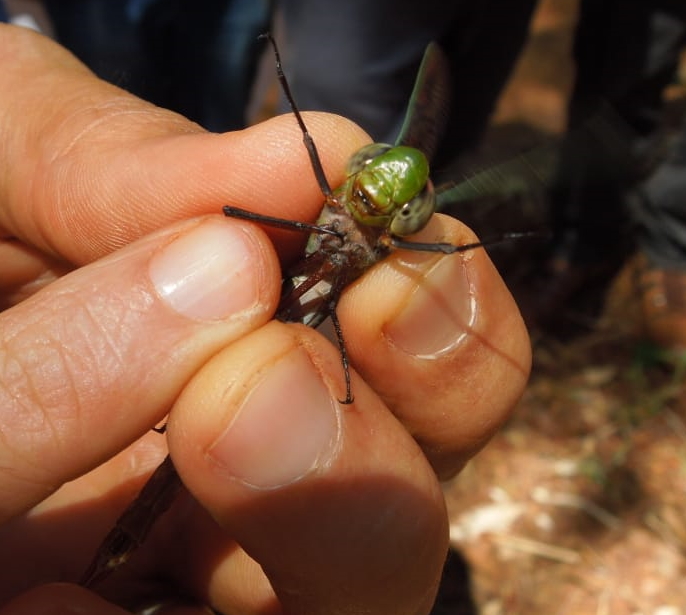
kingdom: Animalia
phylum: Arthropoda
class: Insecta
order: Odonata
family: Libellulidae
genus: Erythemis
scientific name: Erythemis vesiculosa
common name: Great pondhawk
